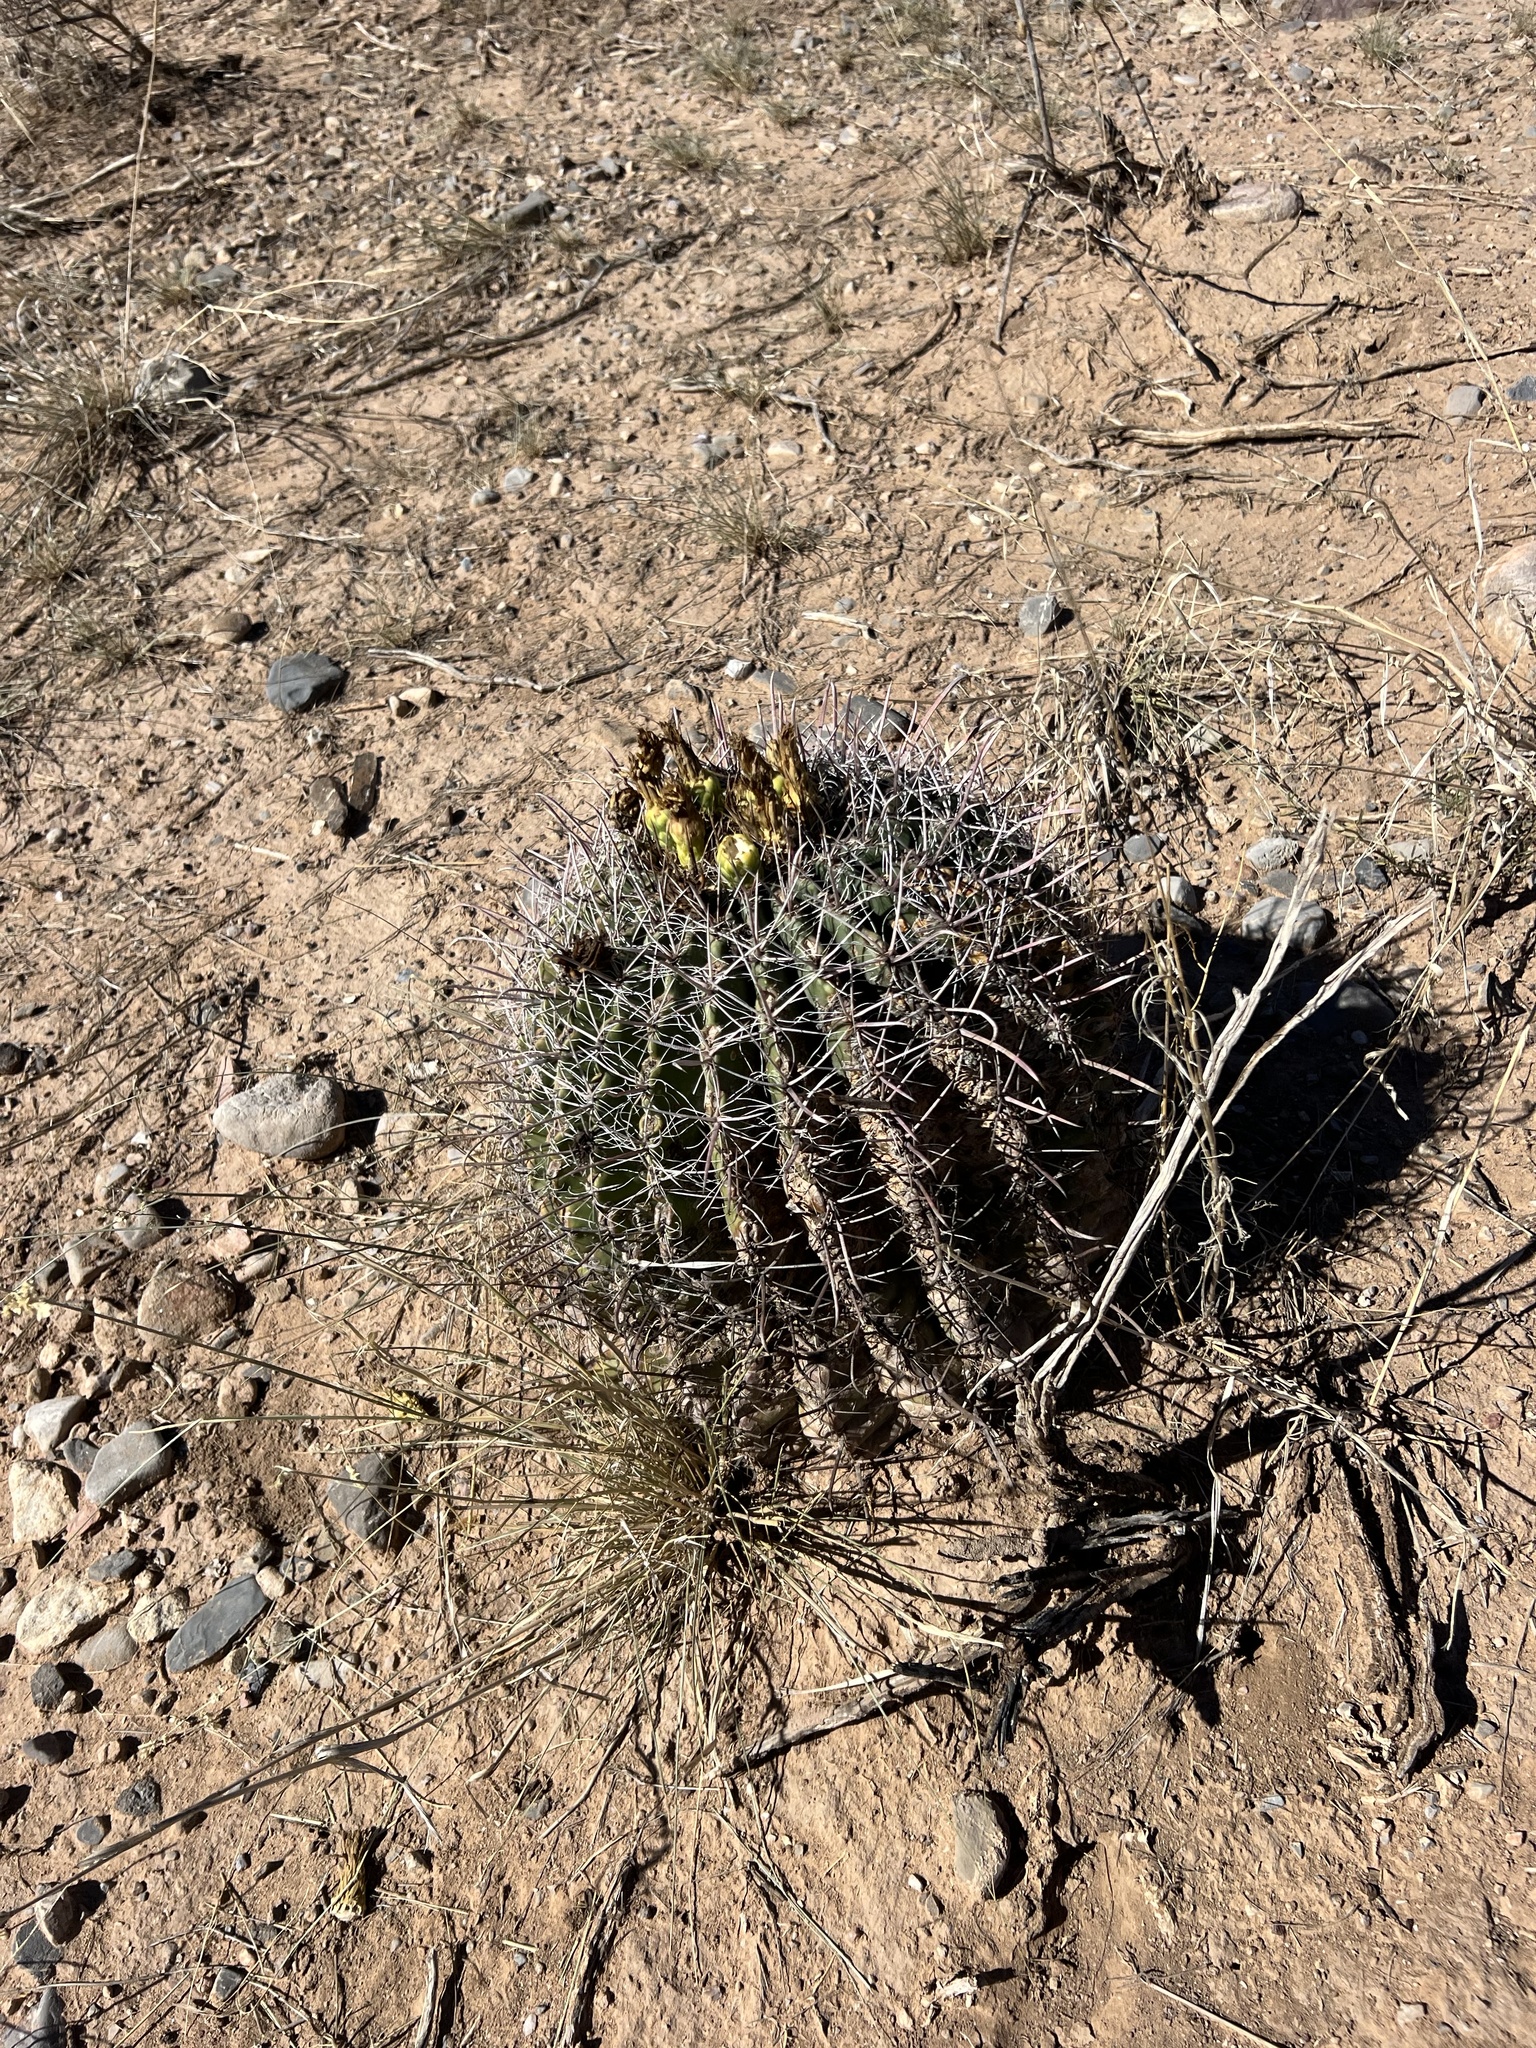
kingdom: Plantae
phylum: Tracheophyta
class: Magnoliopsida
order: Caryophyllales
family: Cactaceae
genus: Ferocactus
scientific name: Ferocactus wislizeni
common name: Candy barrel cactus
